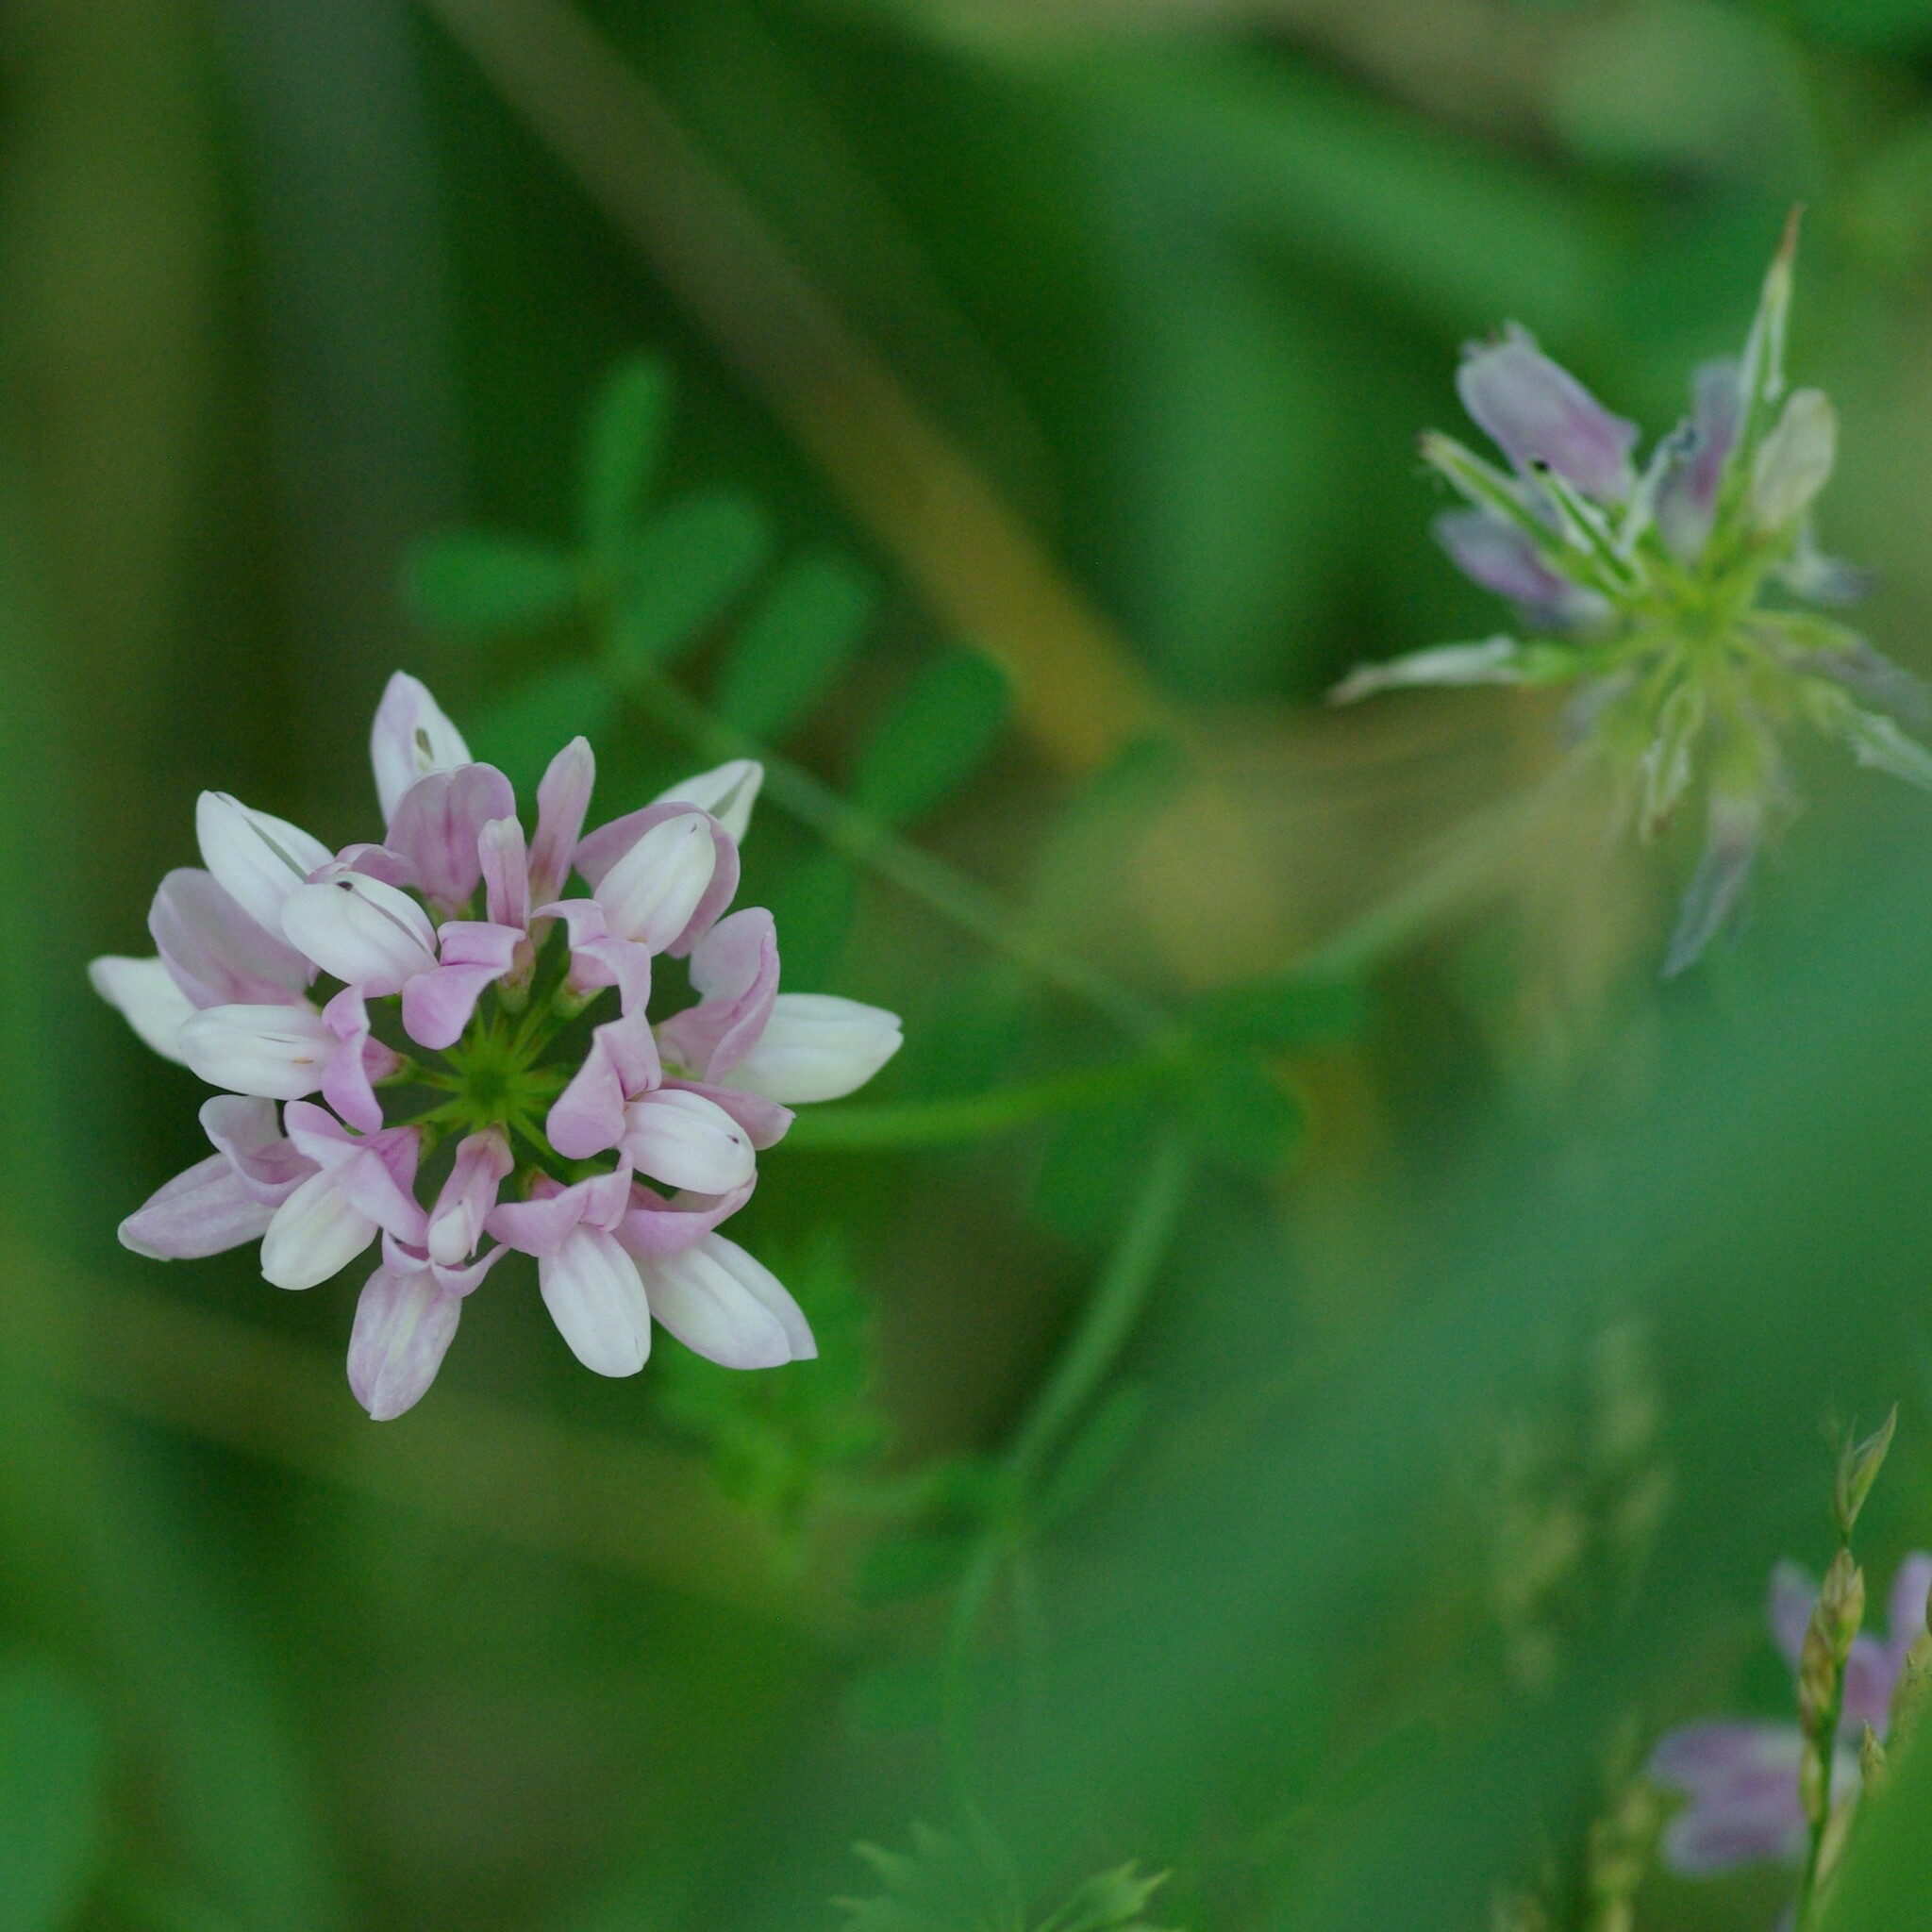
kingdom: Plantae
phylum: Tracheophyta
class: Magnoliopsida
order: Fabales
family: Fabaceae
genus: Coronilla
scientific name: Coronilla varia
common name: Crownvetch
